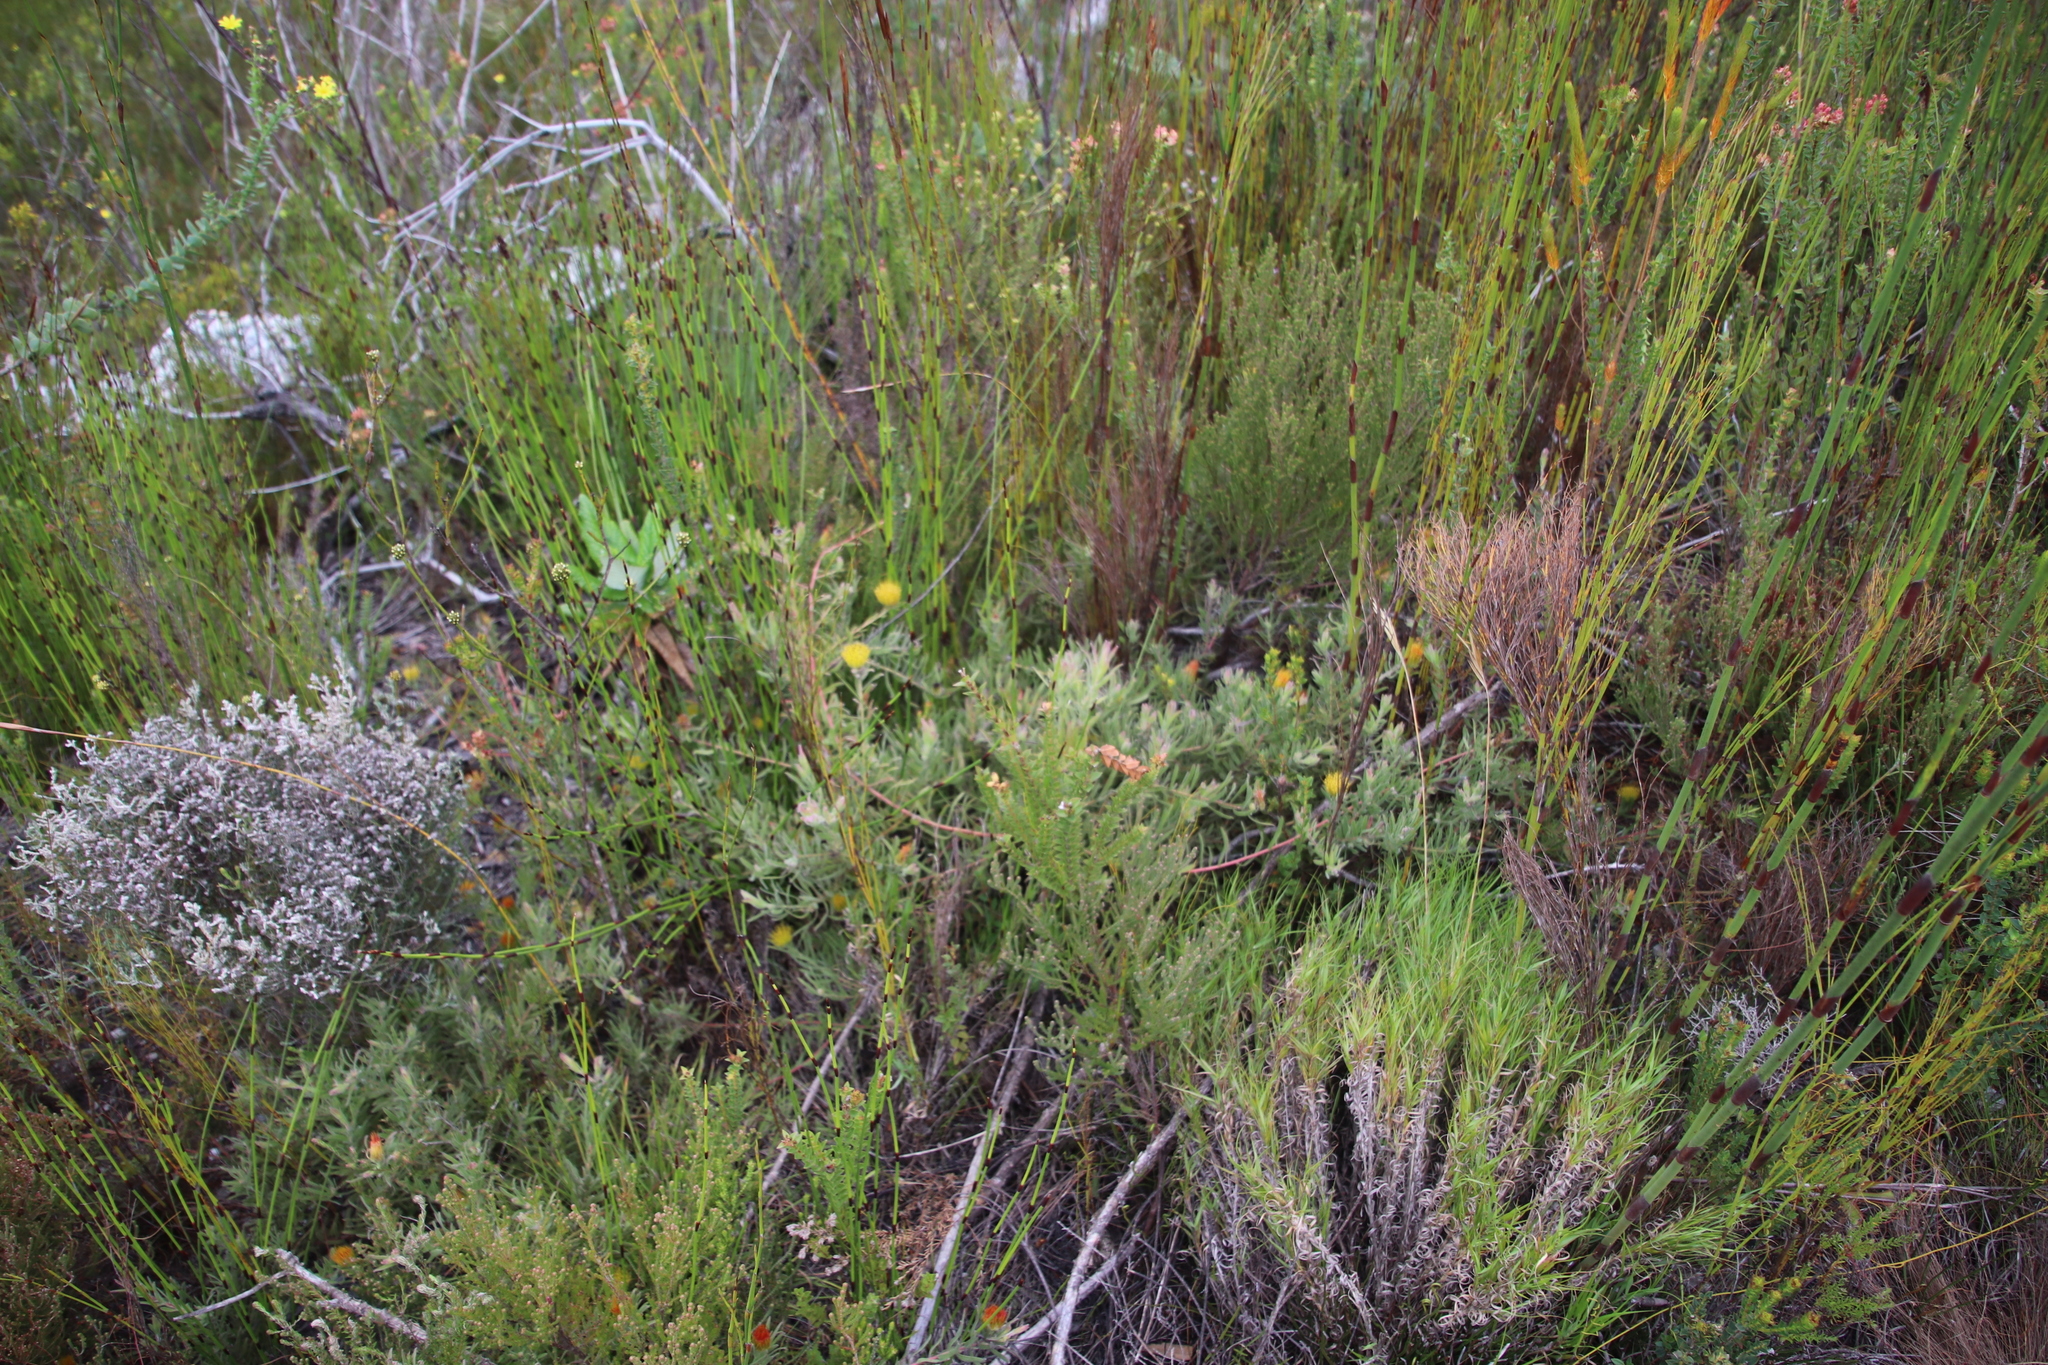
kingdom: Plantae
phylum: Tracheophyta
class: Magnoliopsida
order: Proteales
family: Proteaceae
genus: Leucospermum
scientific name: Leucospermum gracile
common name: Hermanus pincushion
